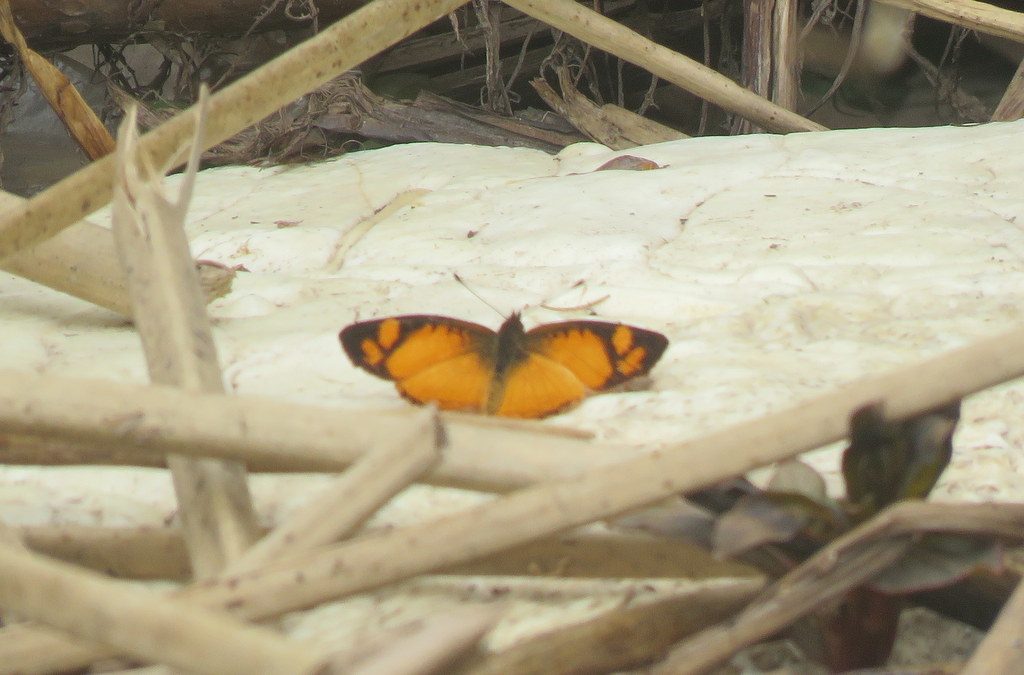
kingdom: Animalia
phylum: Arthropoda
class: Insecta
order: Lepidoptera
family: Nymphalidae
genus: Tegosa
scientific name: Tegosa claudina
